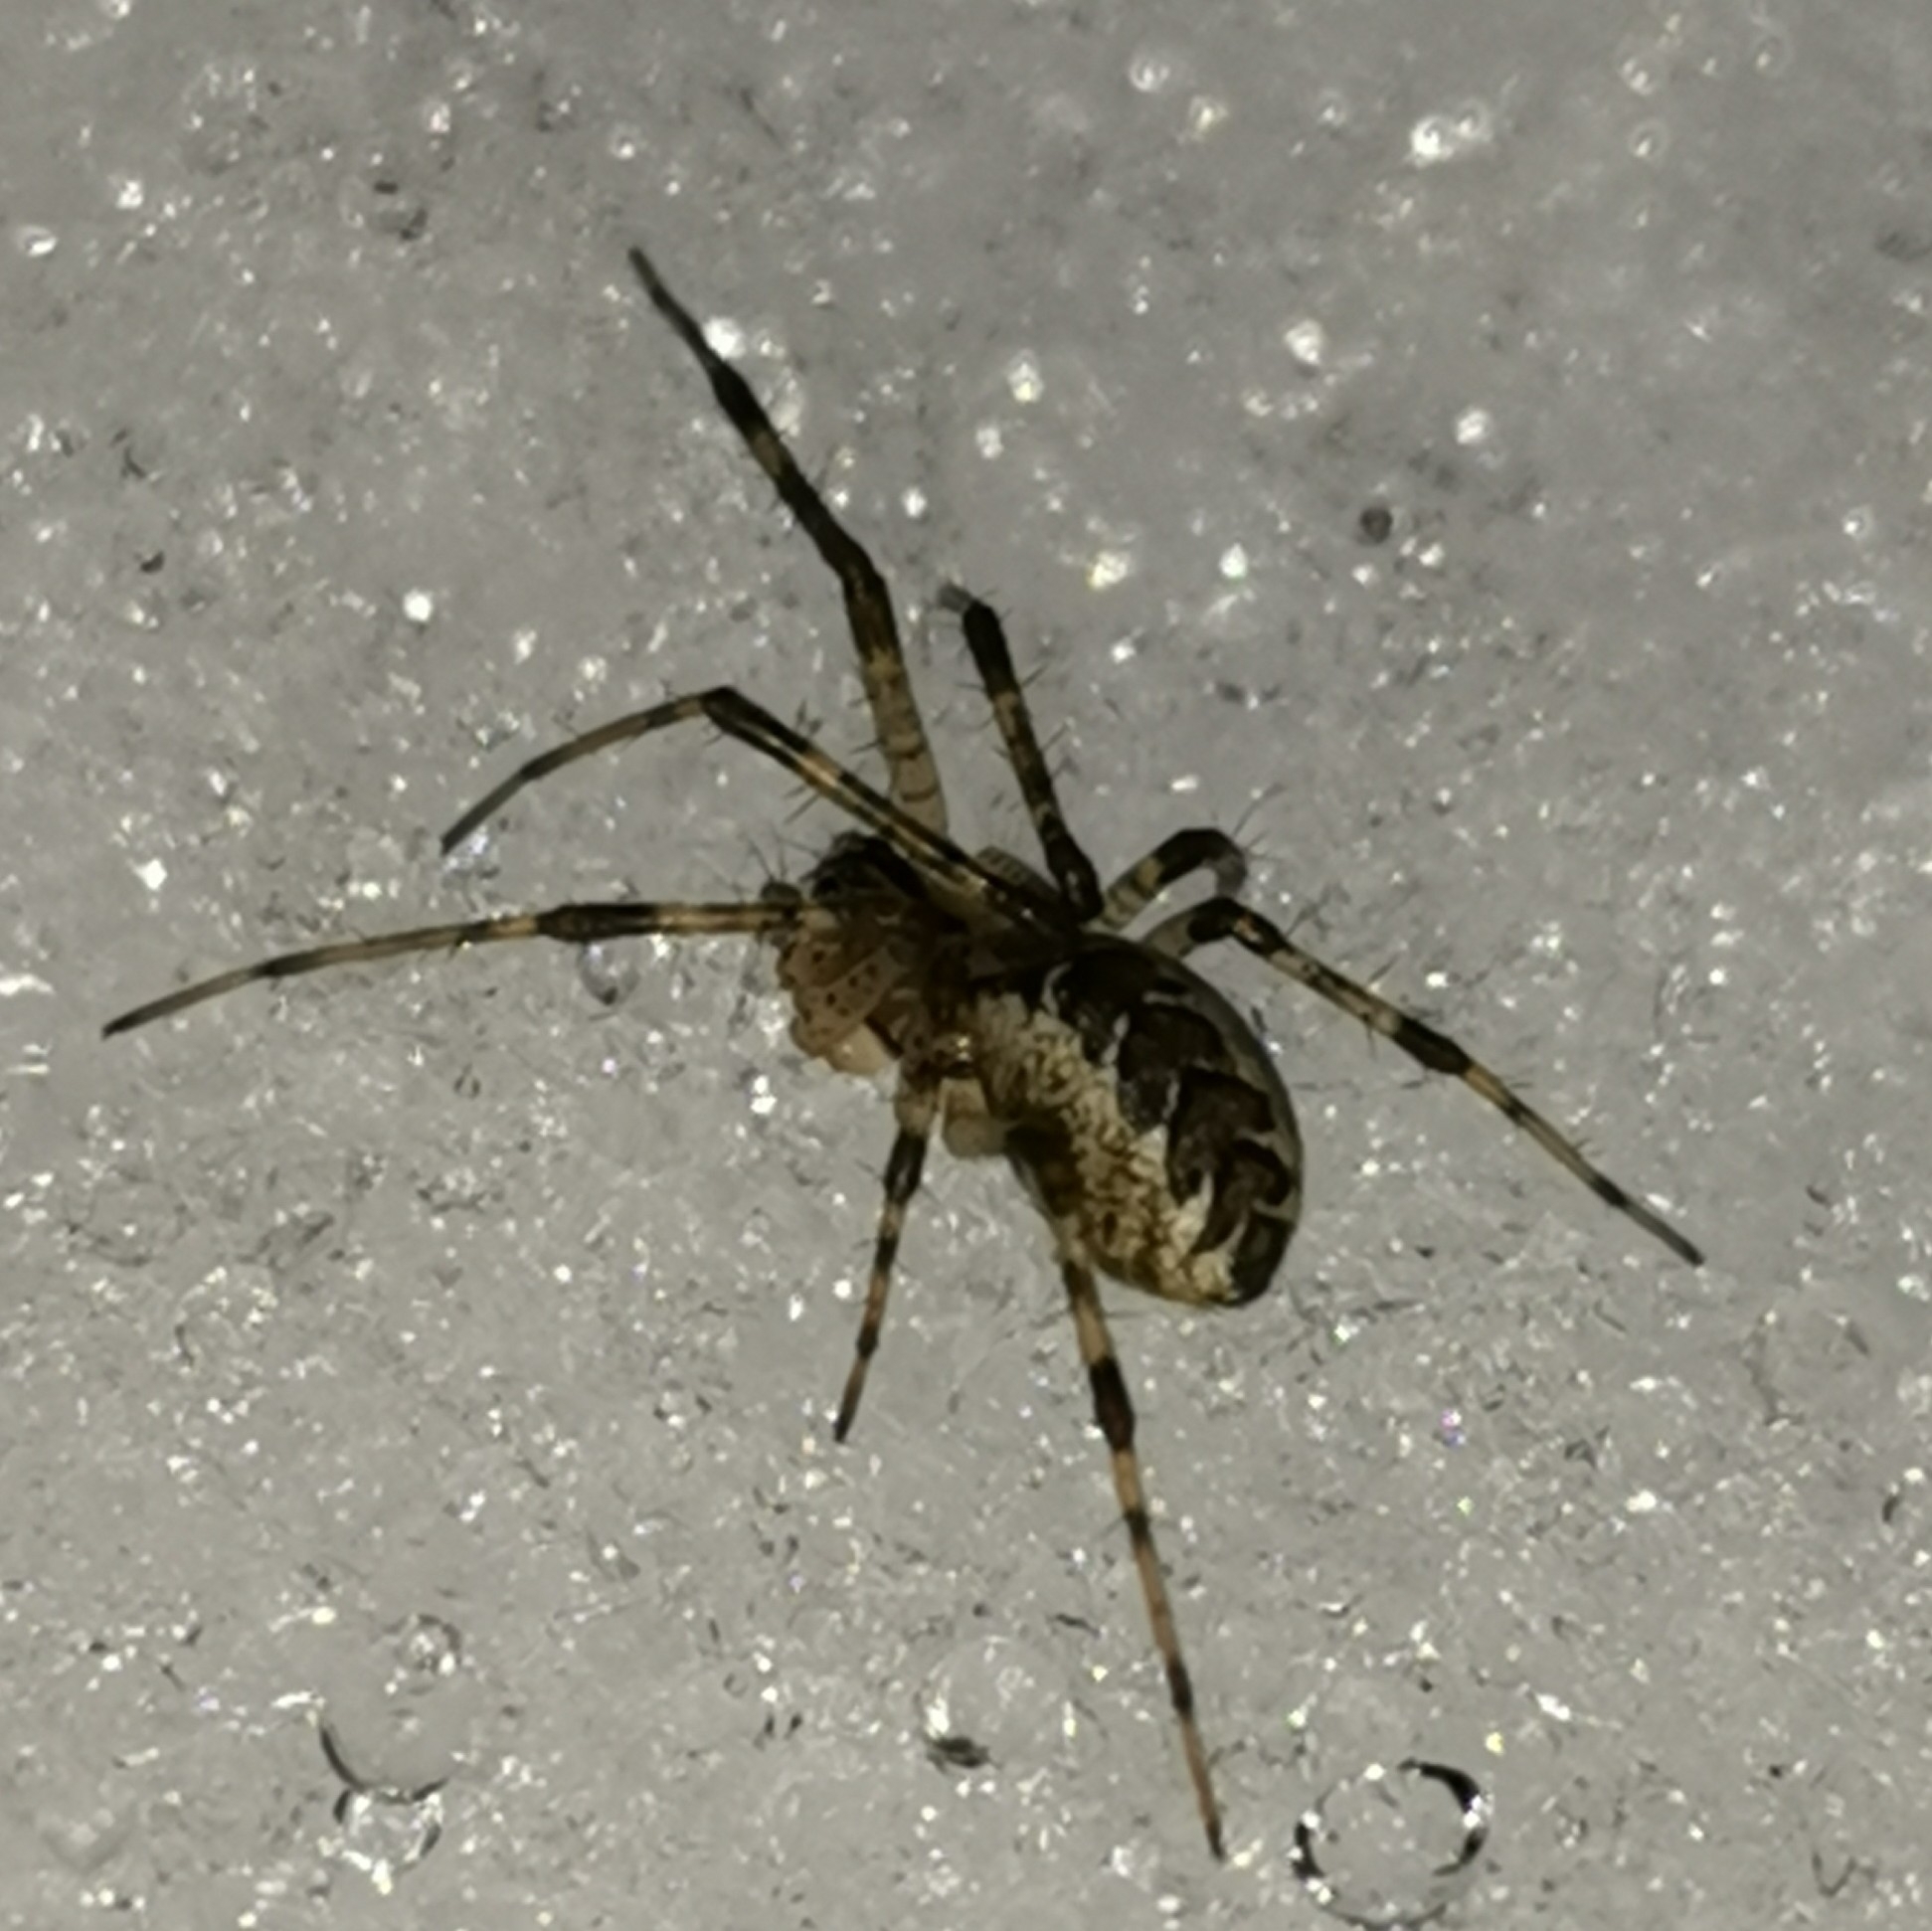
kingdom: Animalia
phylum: Arthropoda
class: Arachnida
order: Araneae
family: Linyphiidae
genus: Pityohyphantes
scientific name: Pityohyphantes phrygianus
